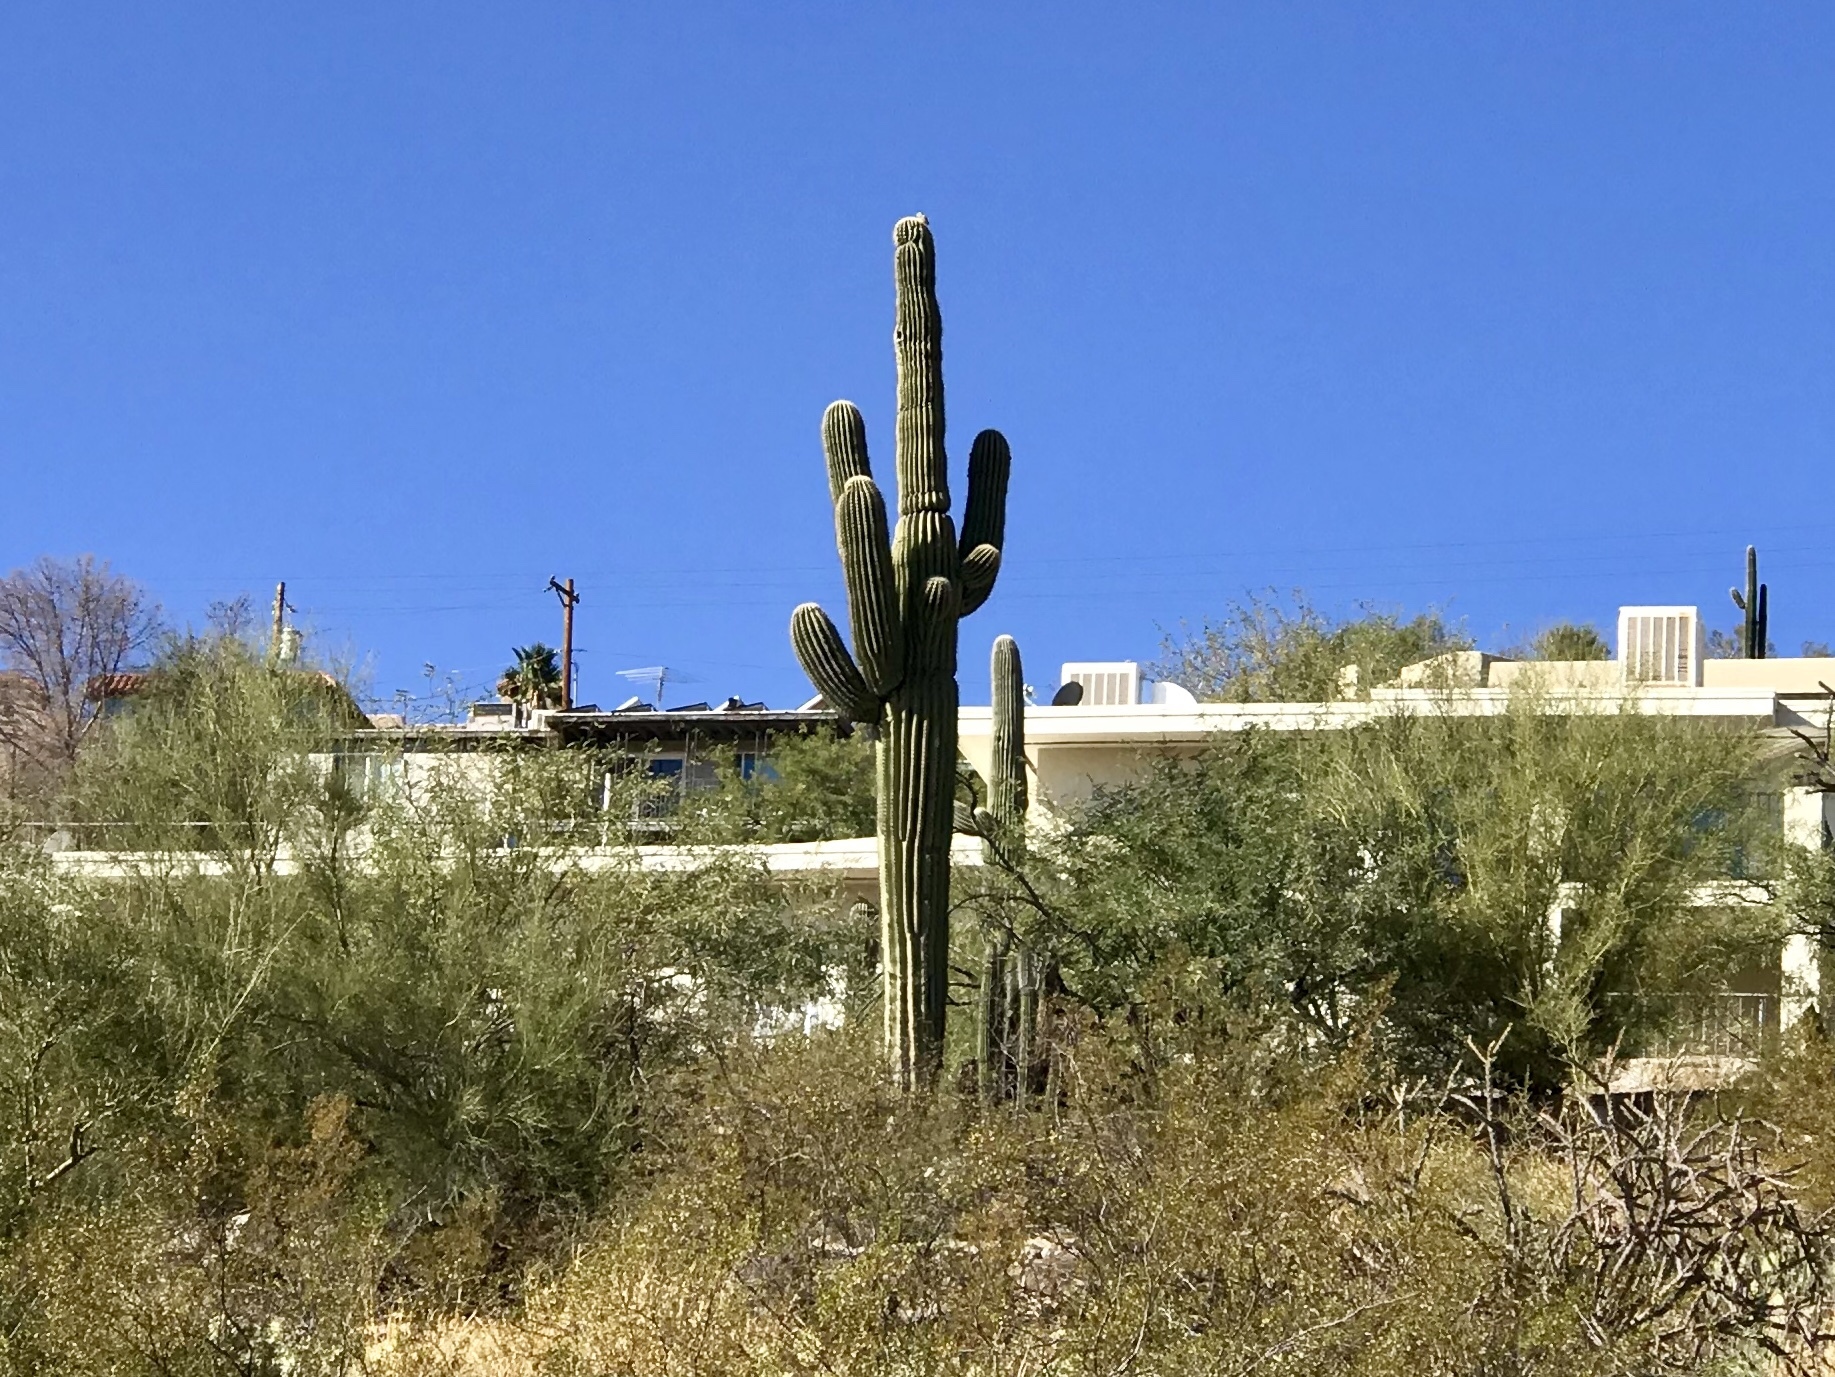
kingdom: Plantae
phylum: Tracheophyta
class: Magnoliopsida
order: Caryophyllales
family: Cactaceae
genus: Carnegiea
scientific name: Carnegiea gigantea
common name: Saguaro
